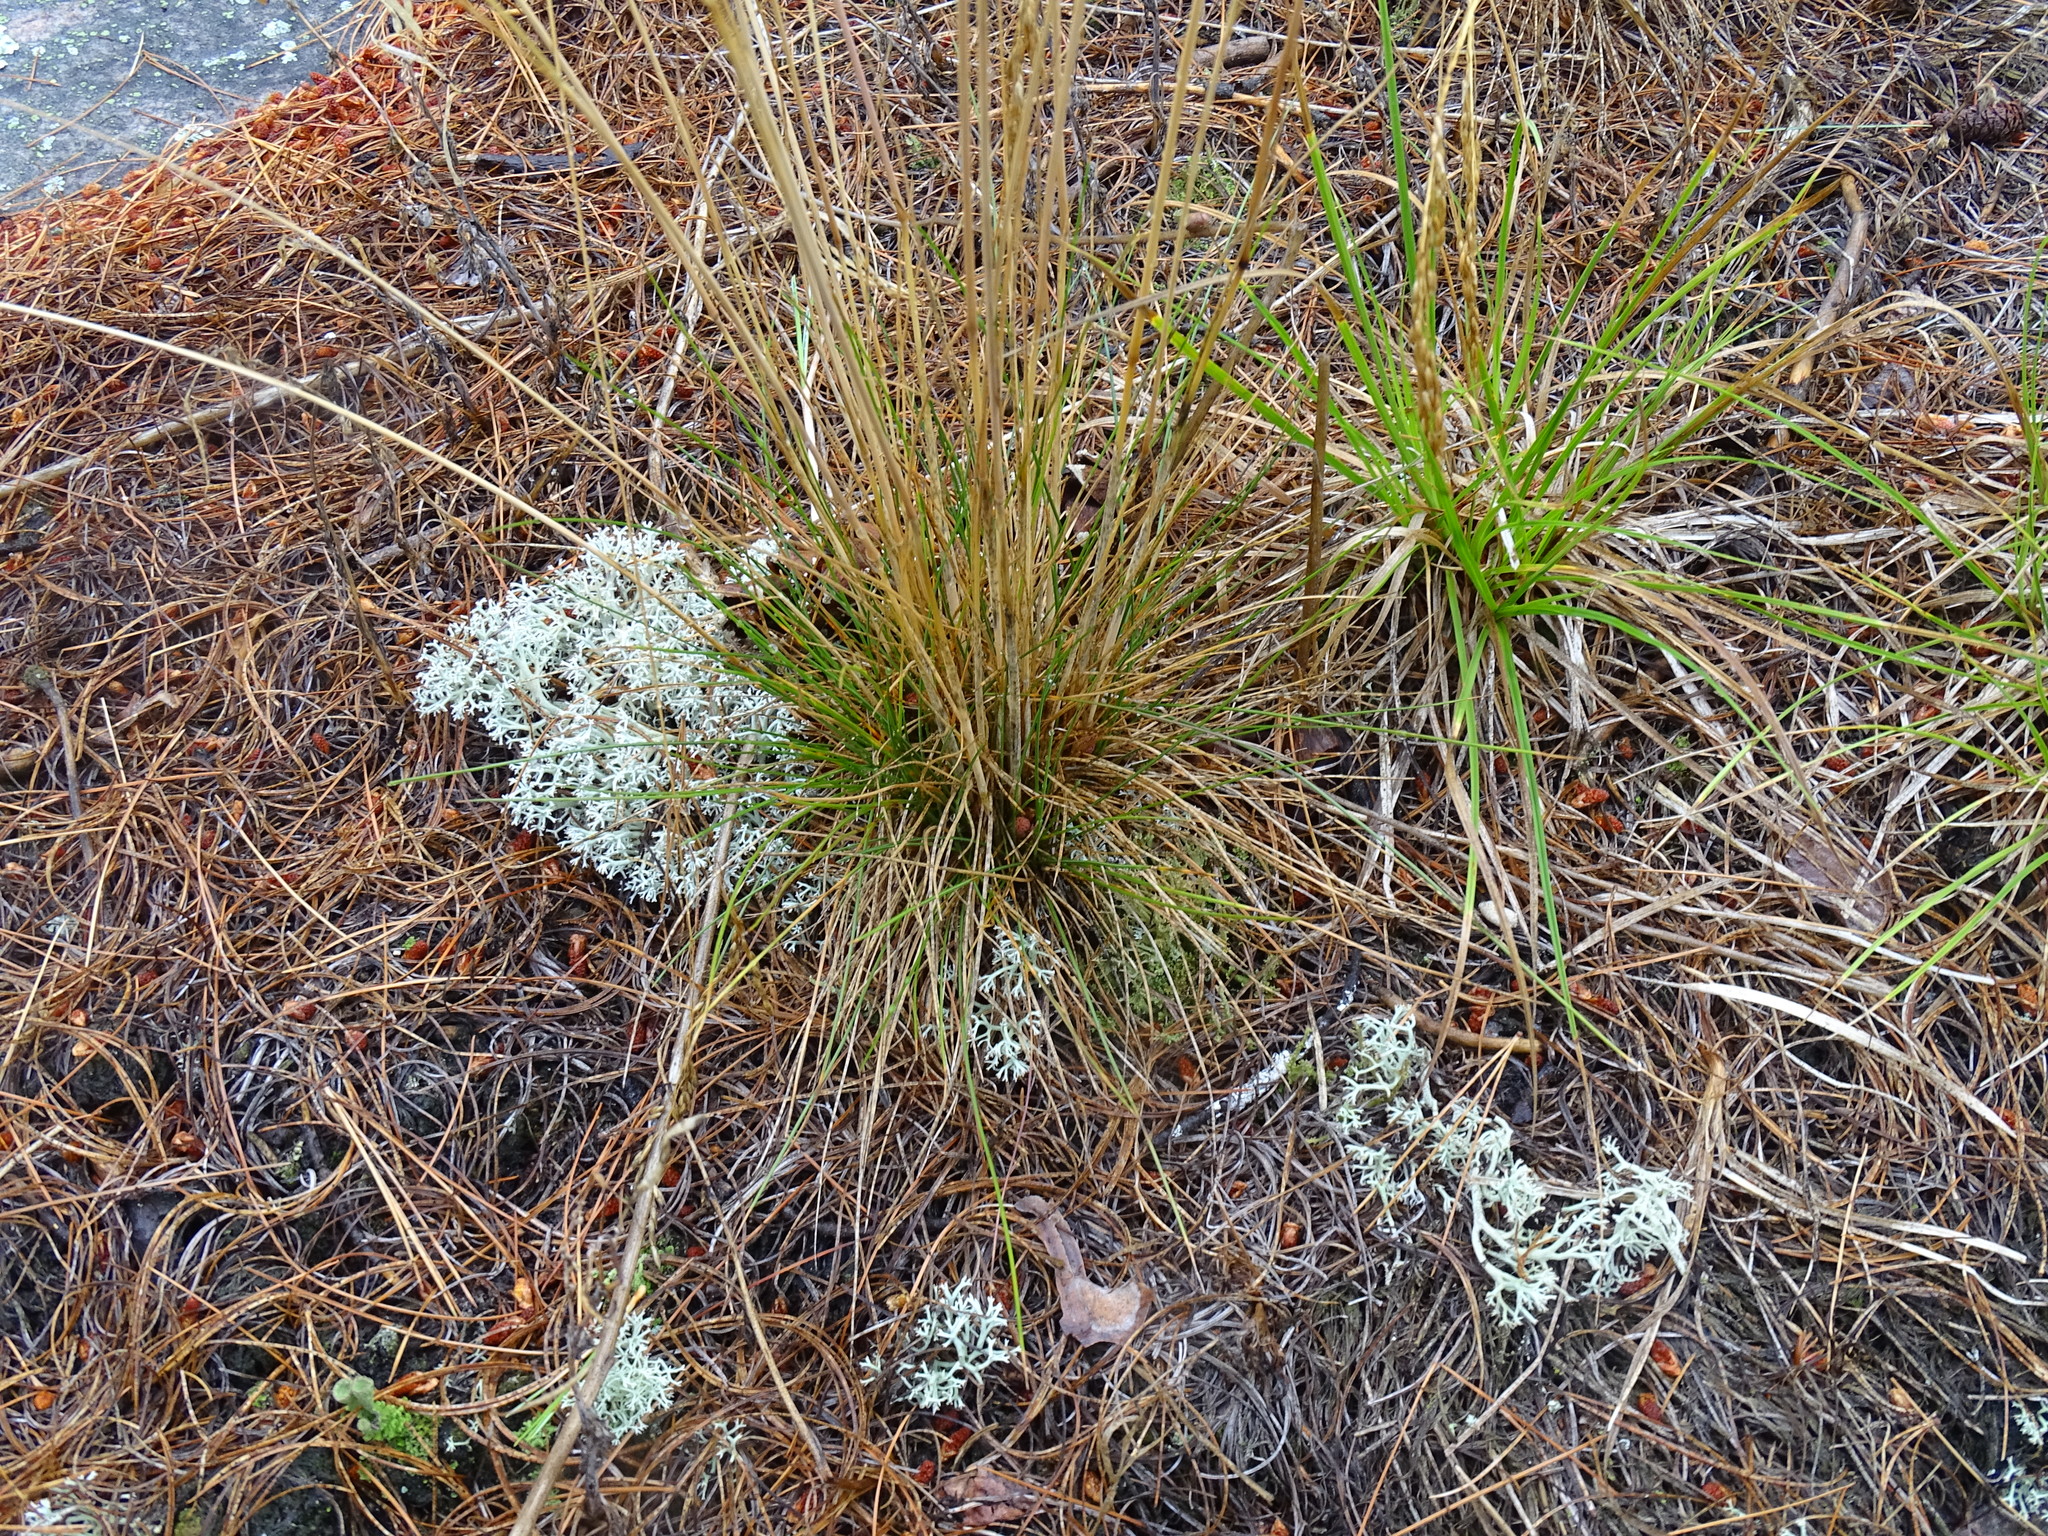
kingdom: Plantae
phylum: Tracheophyta
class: Liliopsida
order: Poales
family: Poaceae
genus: Avenella
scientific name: Avenella flexuosa
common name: Wavy hairgrass
